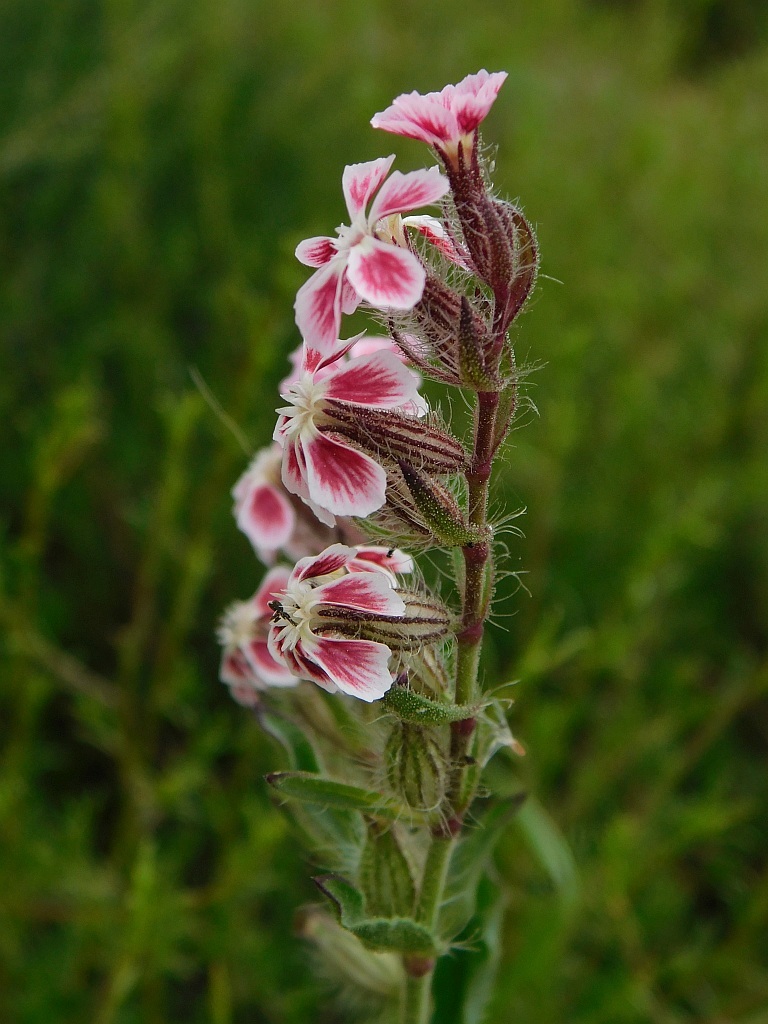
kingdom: Plantae
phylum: Tracheophyta
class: Magnoliopsida
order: Caryophyllales
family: Caryophyllaceae
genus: Silene
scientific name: Silene gallica
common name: Small-flowered catchfly
